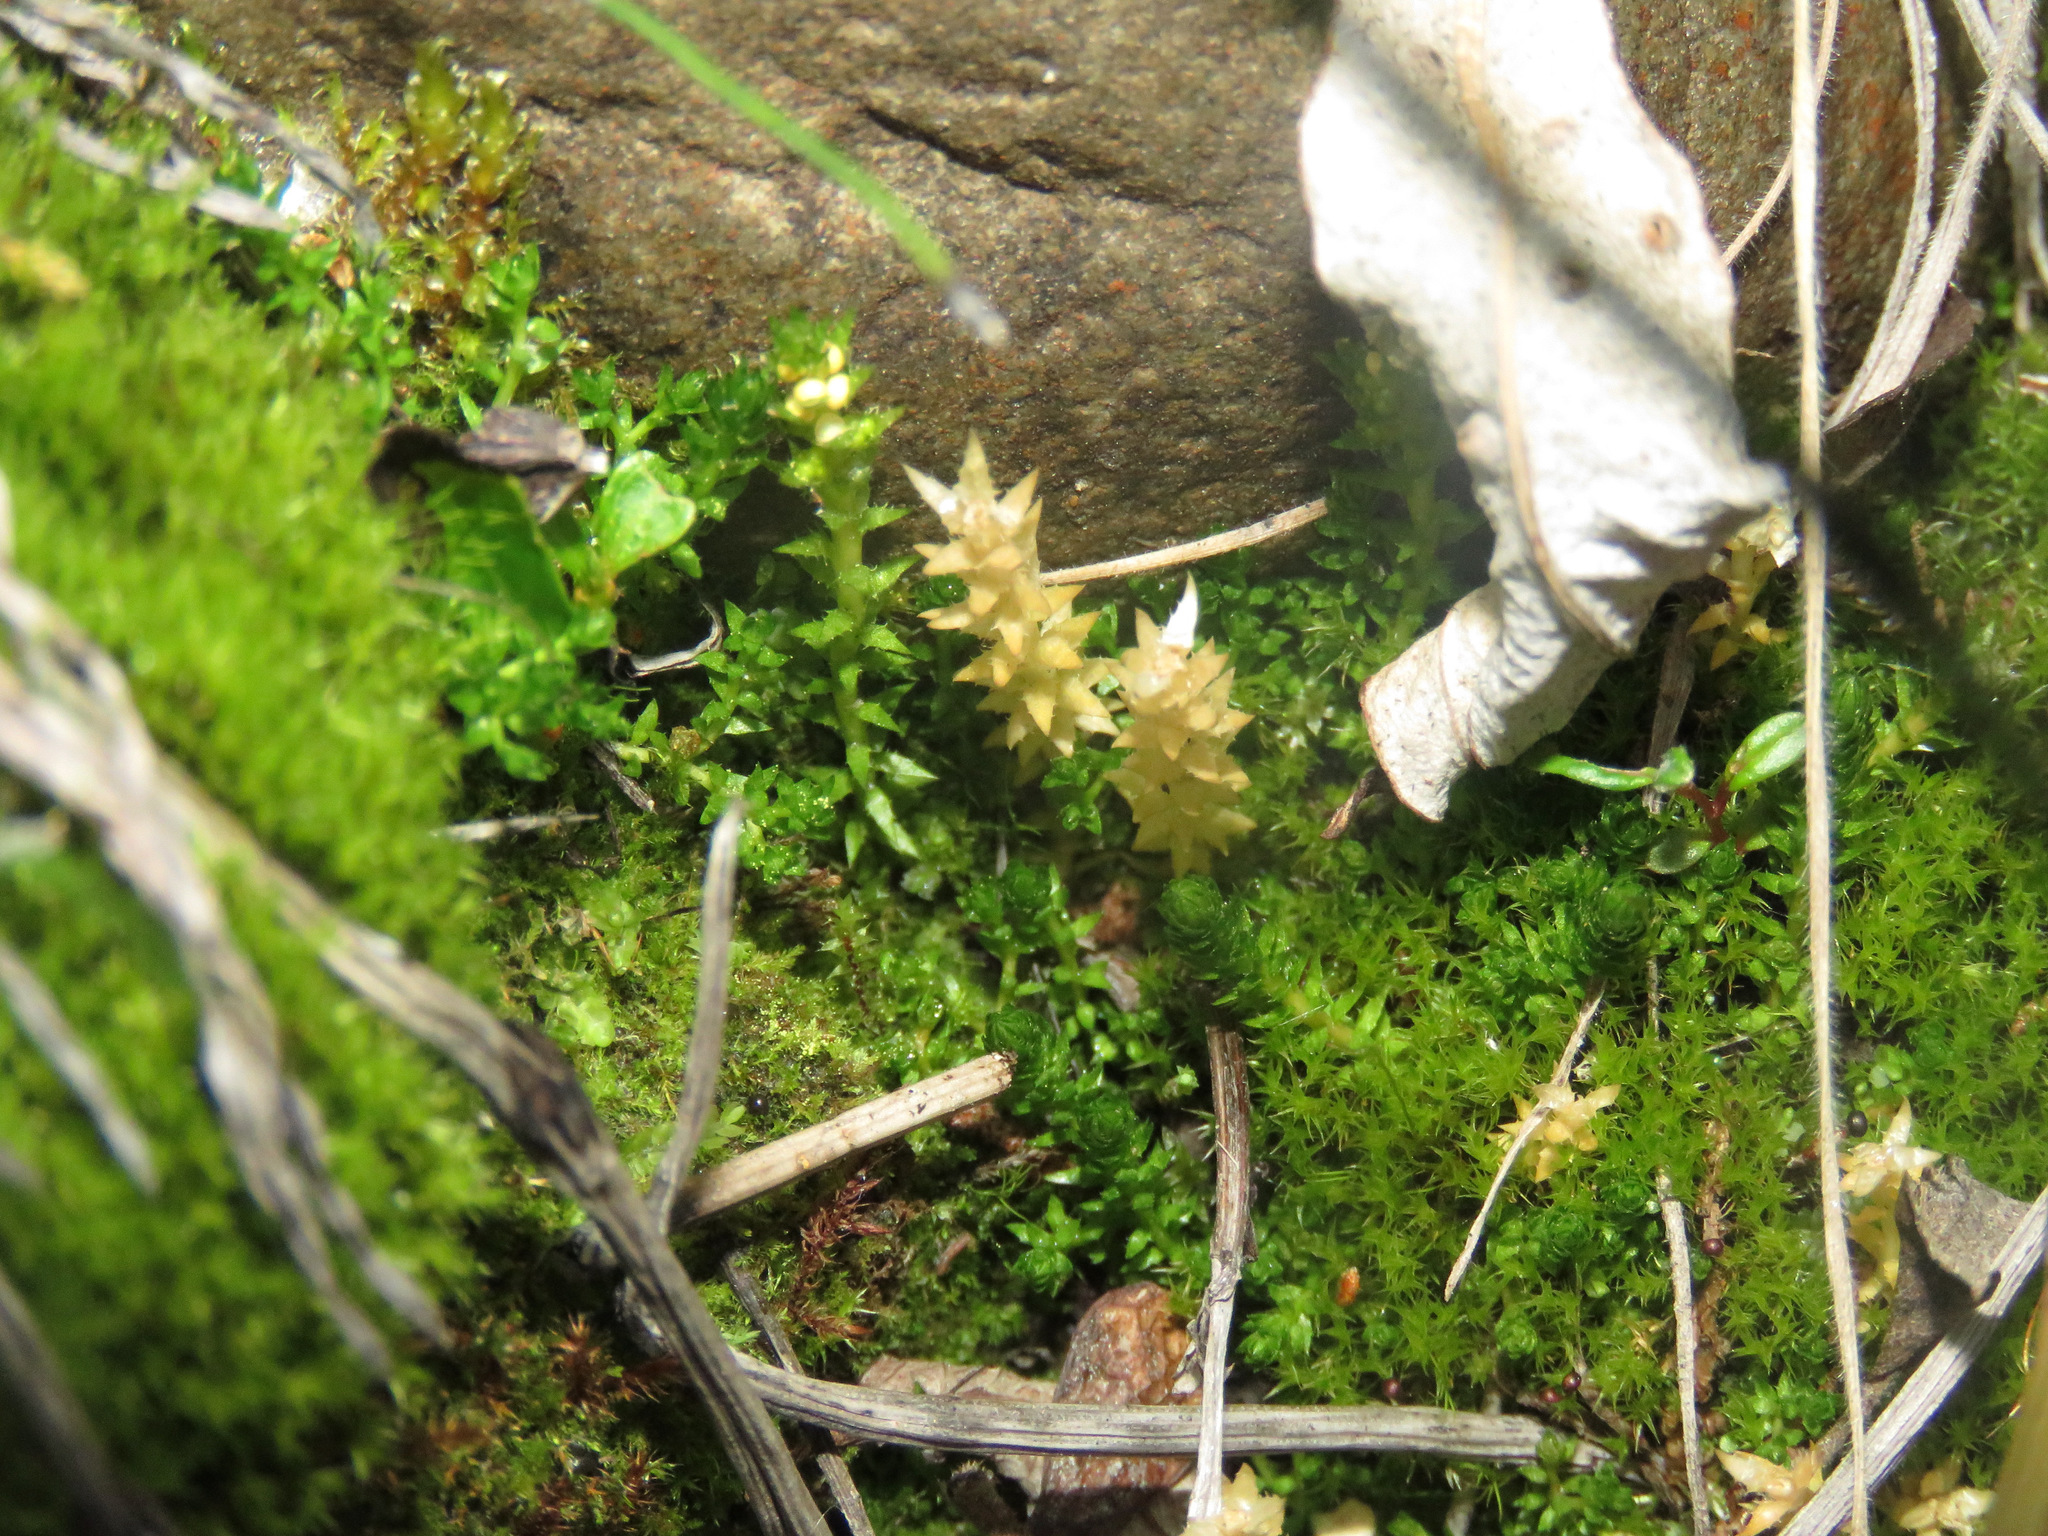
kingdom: Plantae
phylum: Tracheophyta
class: Lycopodiopsida
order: Selaginellales
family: Selaginellaceae
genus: Selaginella
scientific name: Selaginella selaginoides
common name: Prickly mountain-moss
